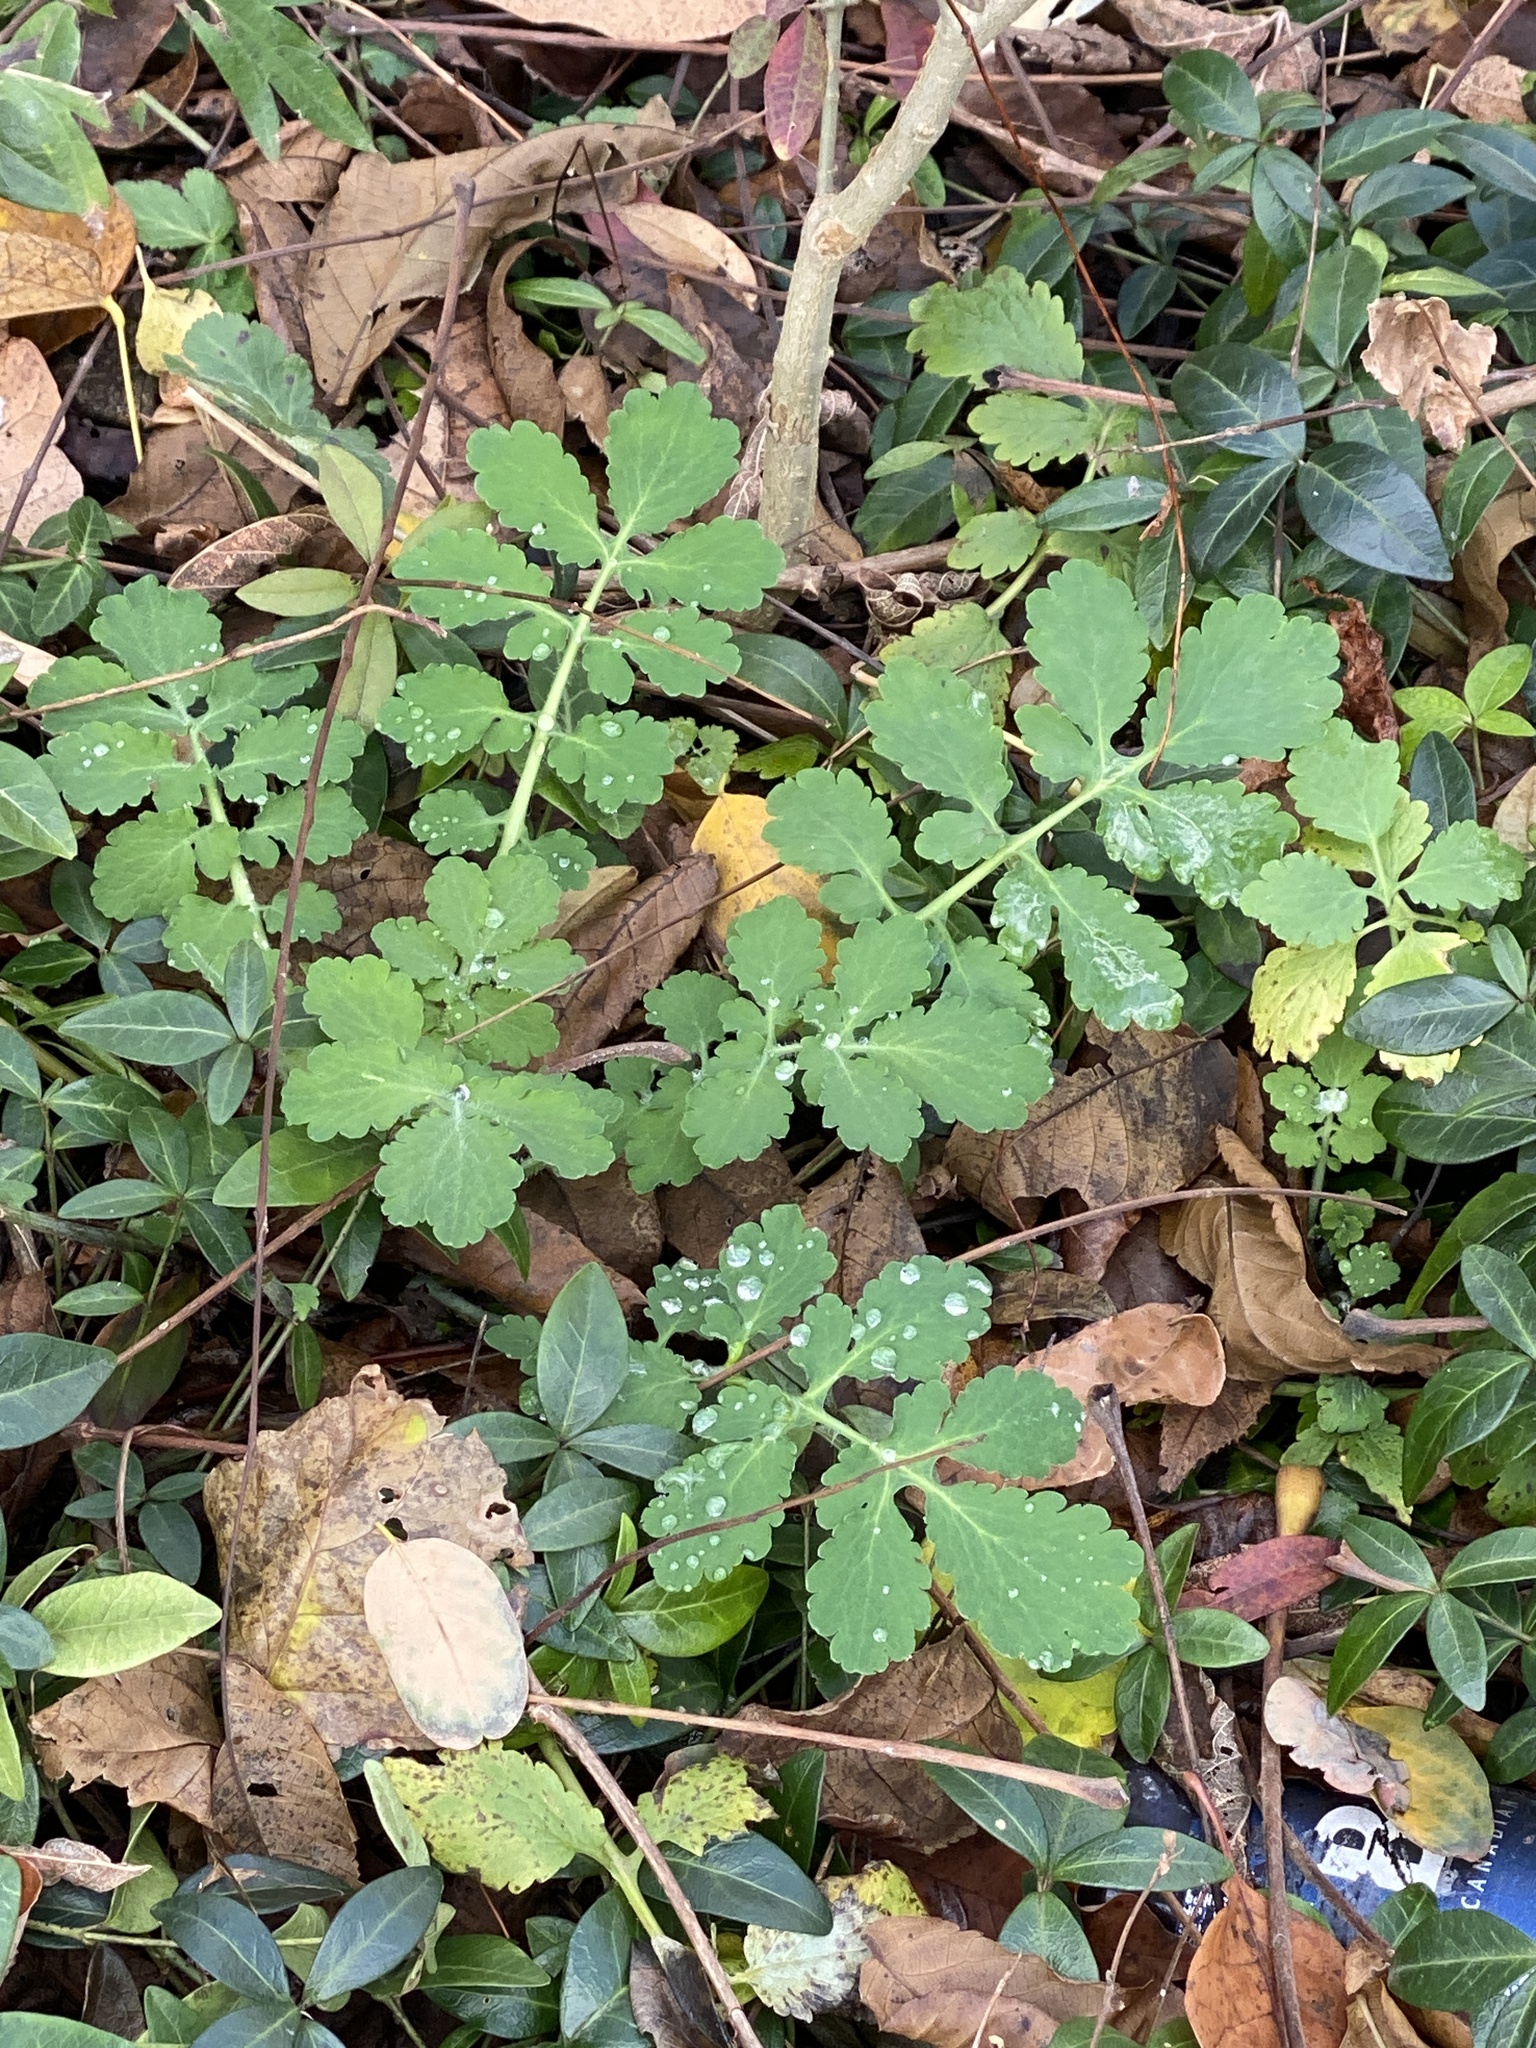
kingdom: Plantae
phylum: Tracheophyta
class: Magnoliopsida
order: Ranunculales
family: Papaveraceae
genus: Chelidonium
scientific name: Chelidonium majus
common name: Greater celandine
